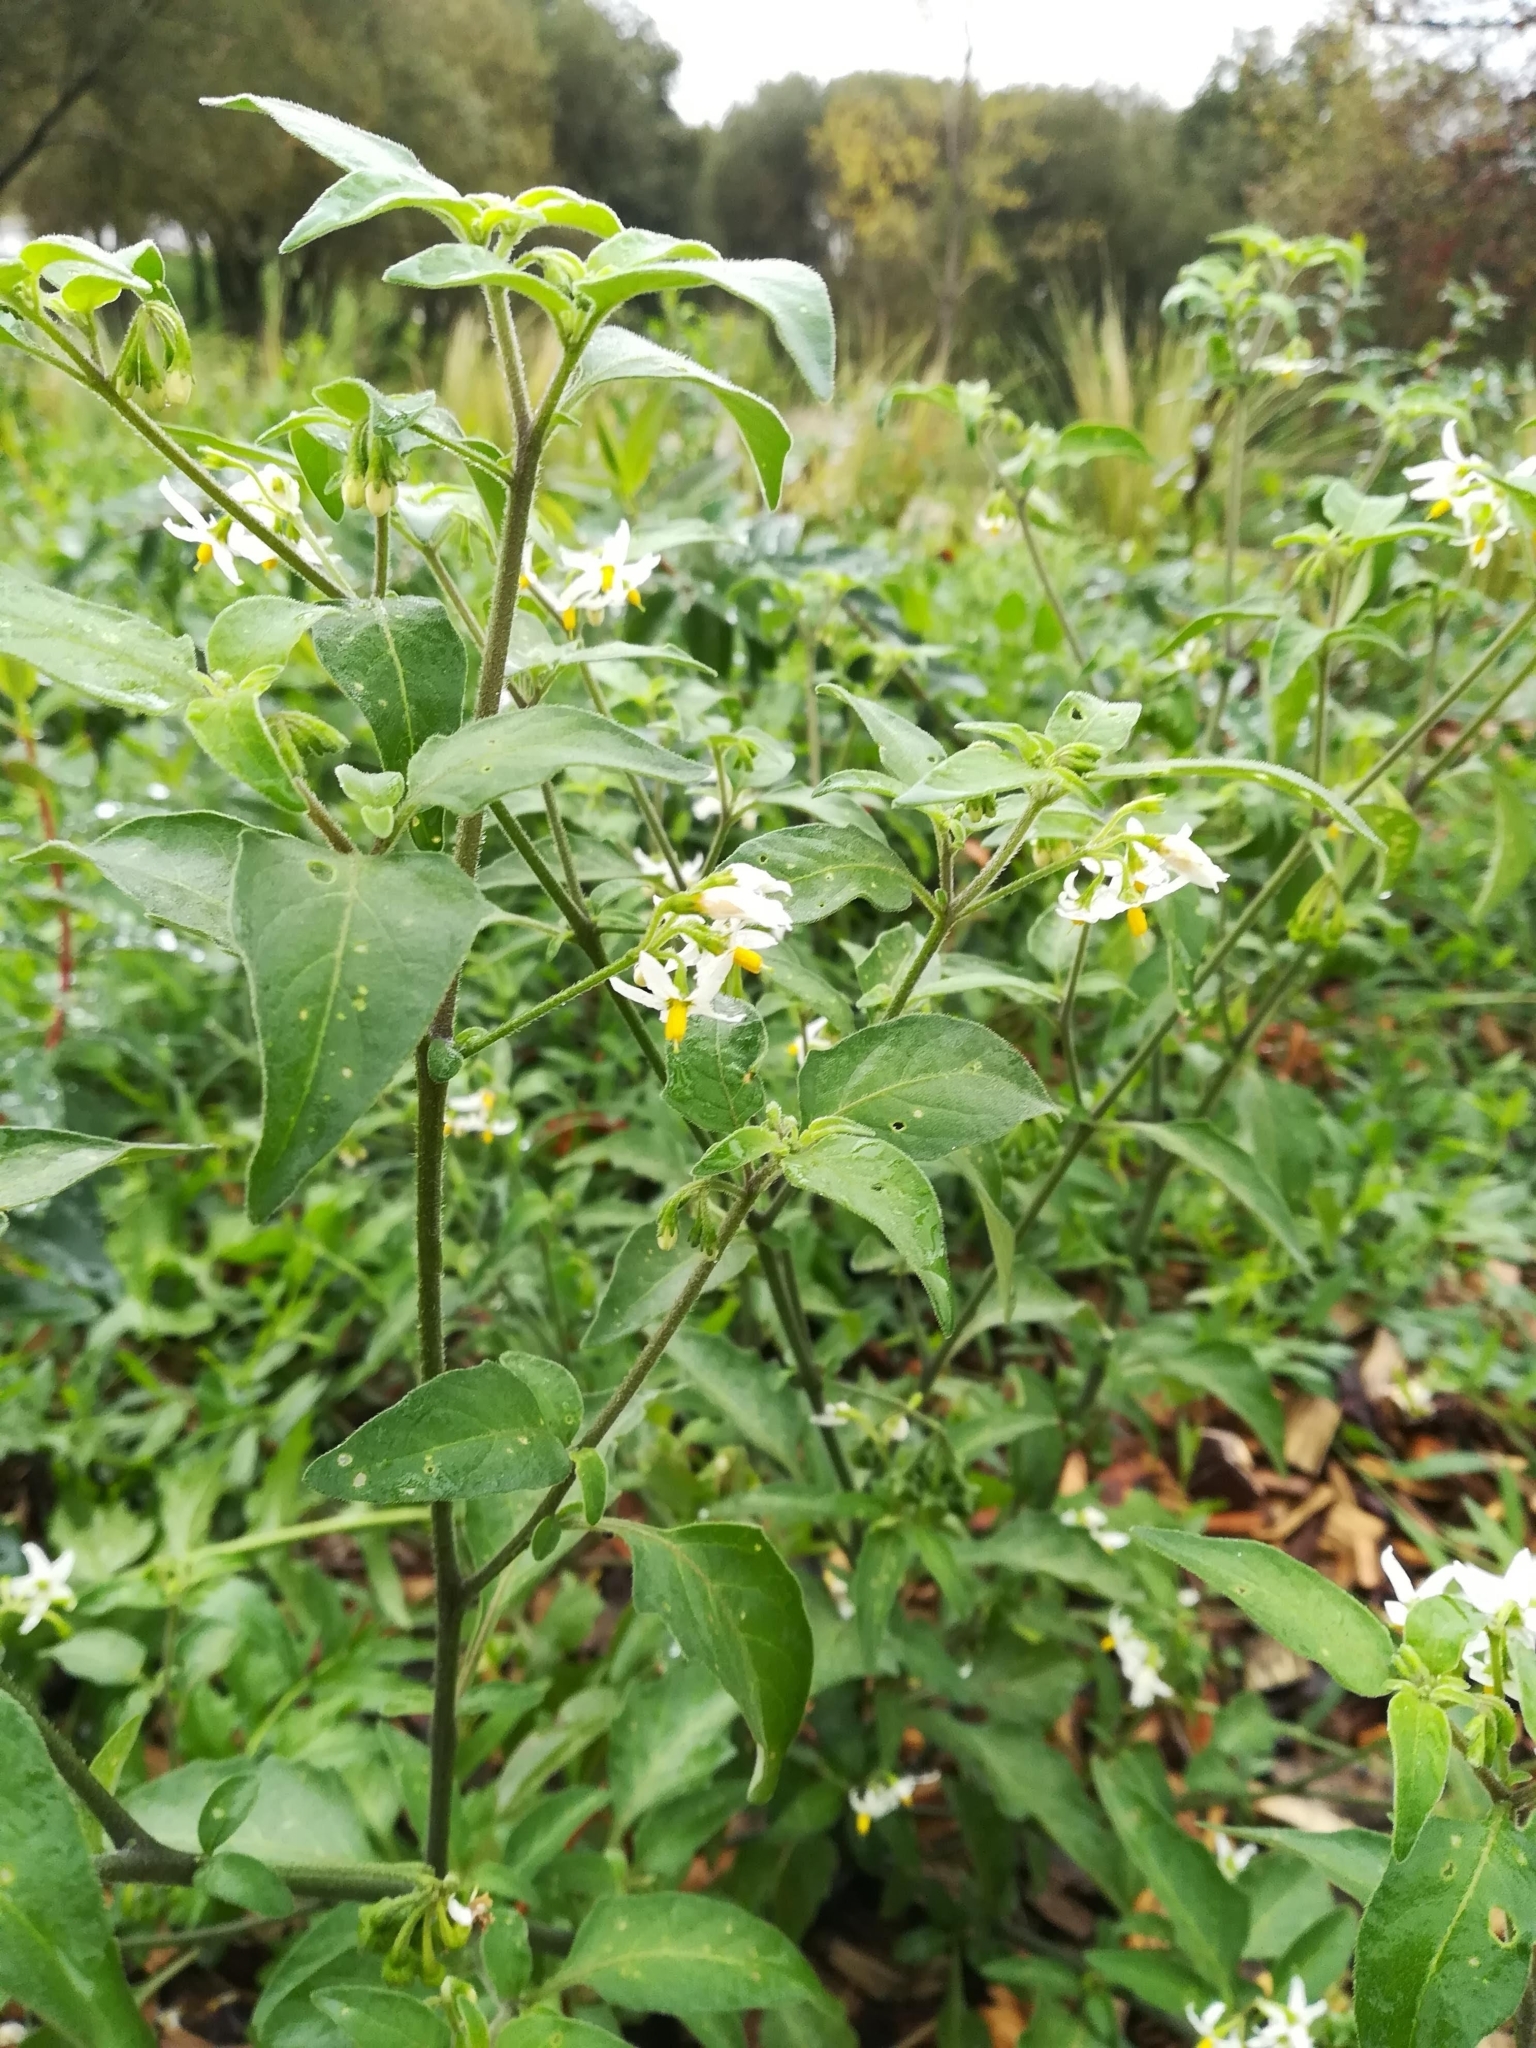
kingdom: Plantae
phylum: Tracheophyta
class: Magnoliopsida
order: Solanales
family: Solanaceae
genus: Solanum
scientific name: Solanum chenopodioides
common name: Tall nightshade
